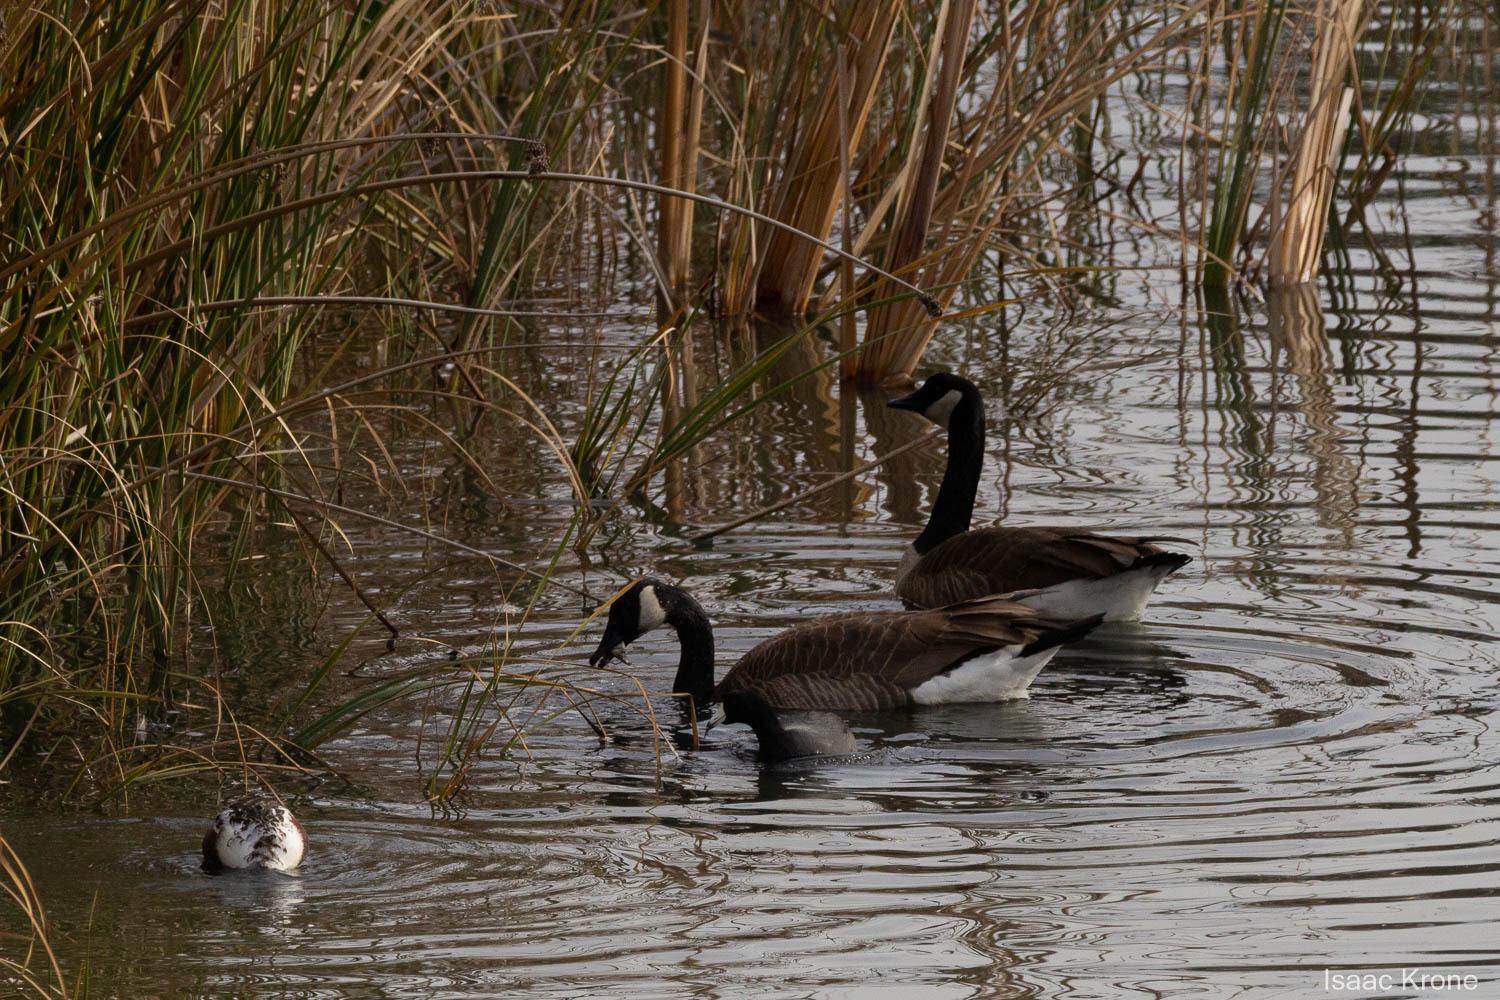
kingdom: Animalia
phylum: Chordata
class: Aves
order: Anseriformes
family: Anatidae
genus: Branta
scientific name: Branta canadensis
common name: Canada goose
